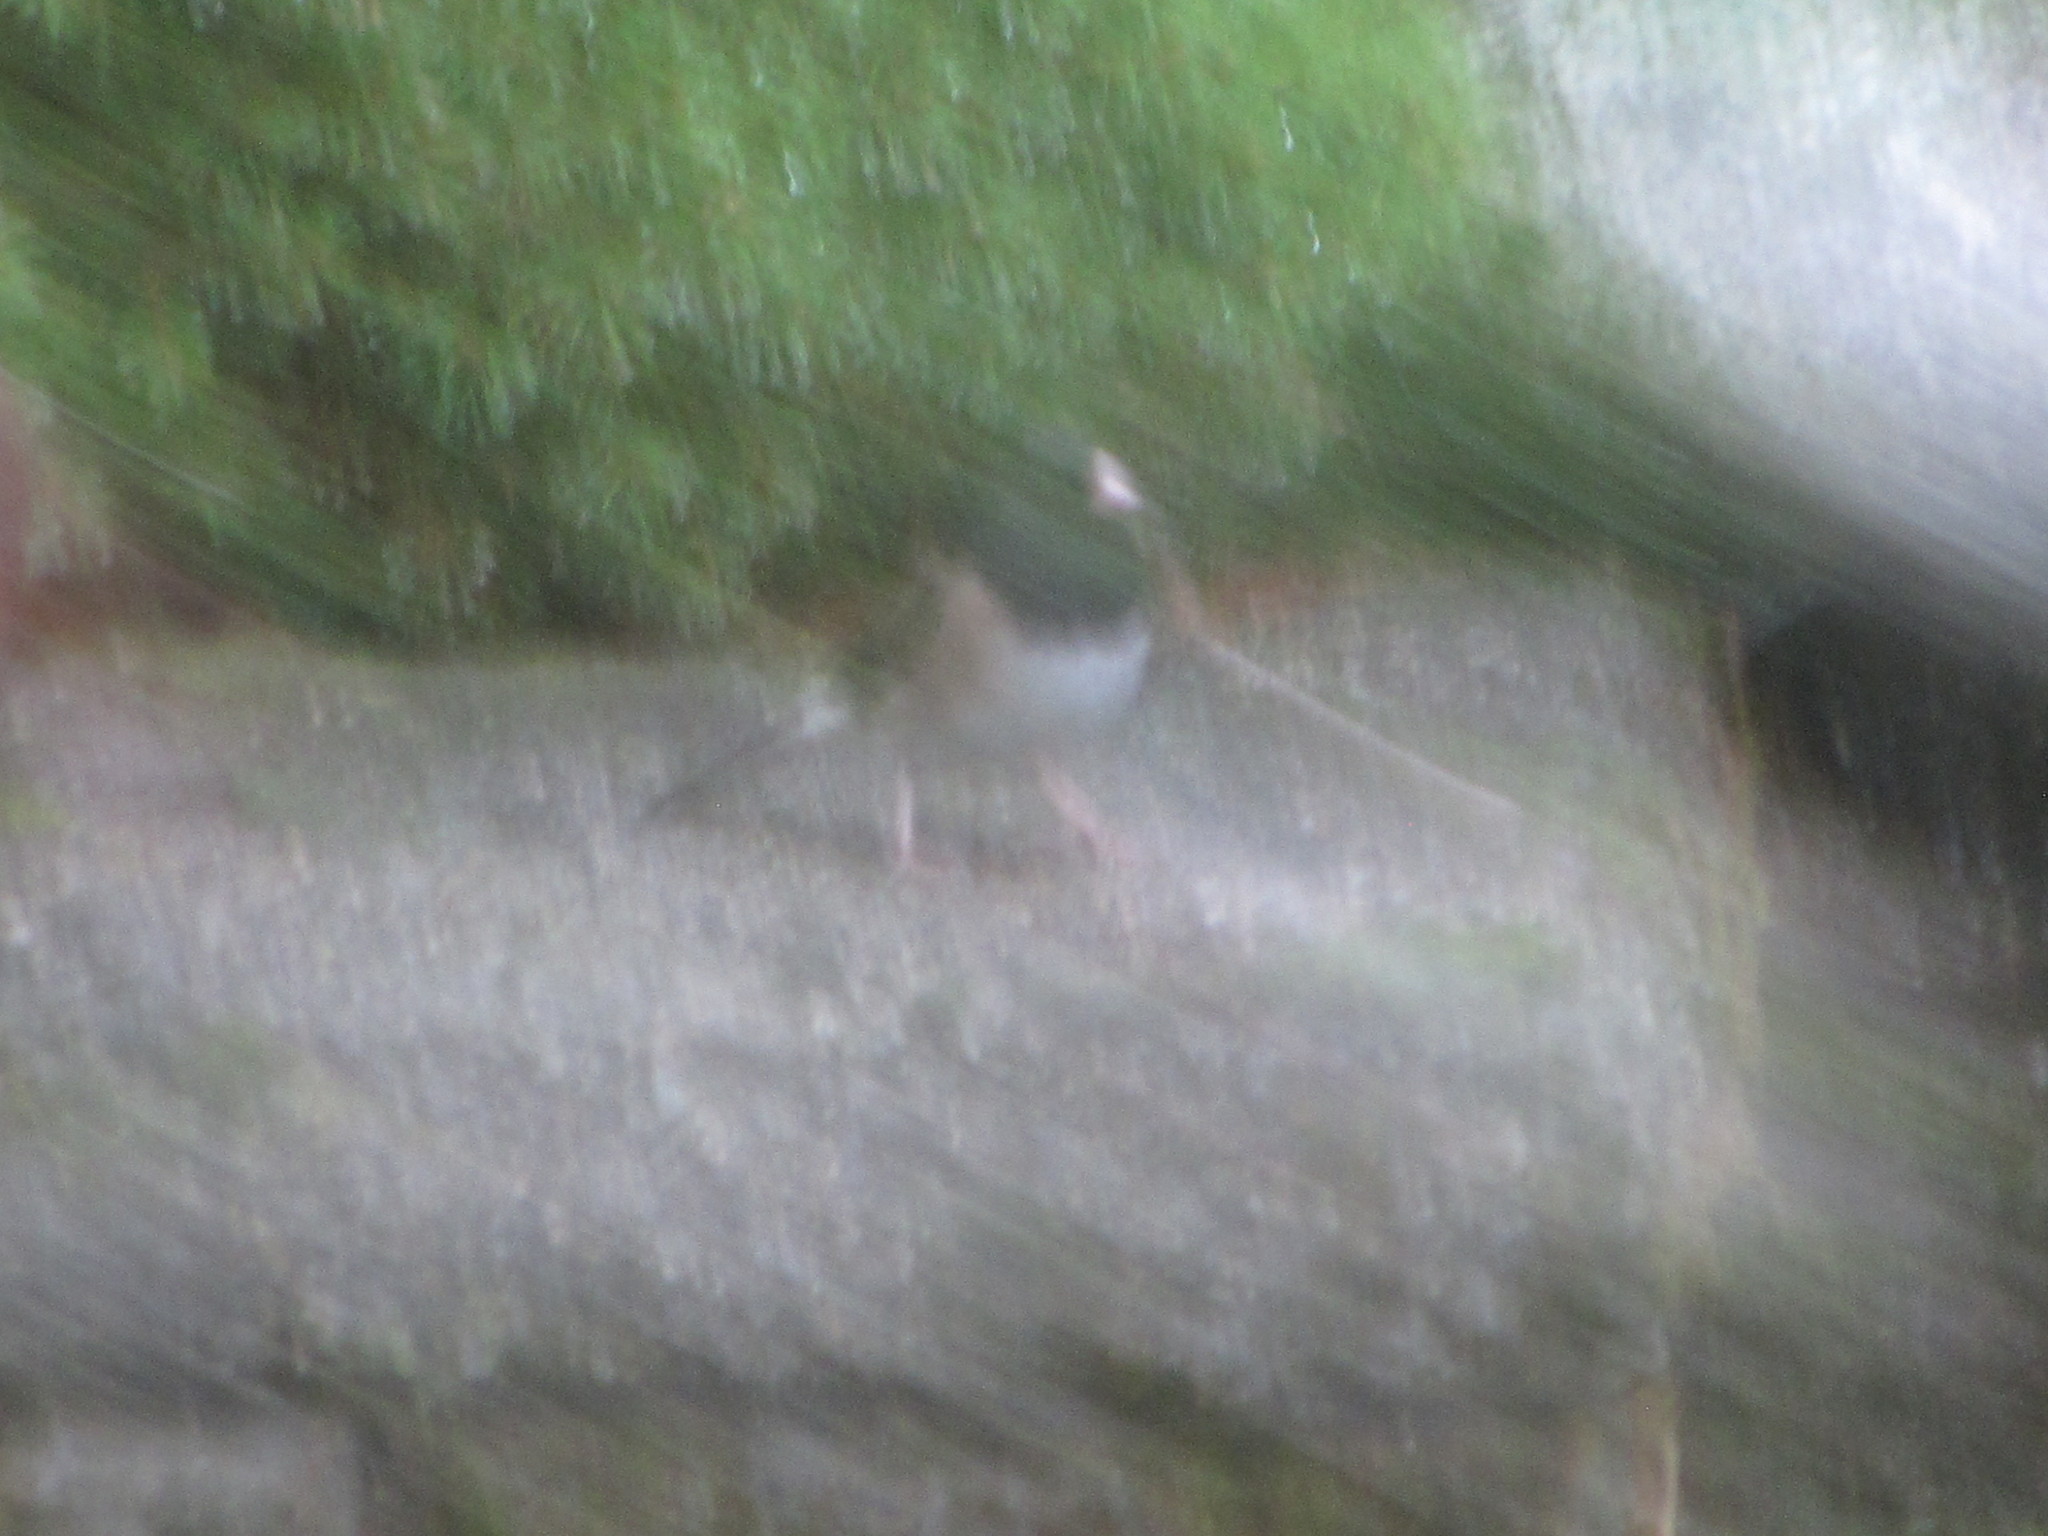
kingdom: Animalia
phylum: Chordata
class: Aves
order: Passeriformes
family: Passerellidae
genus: Junco
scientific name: Junco hyemalis
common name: Dark-eyed junco
